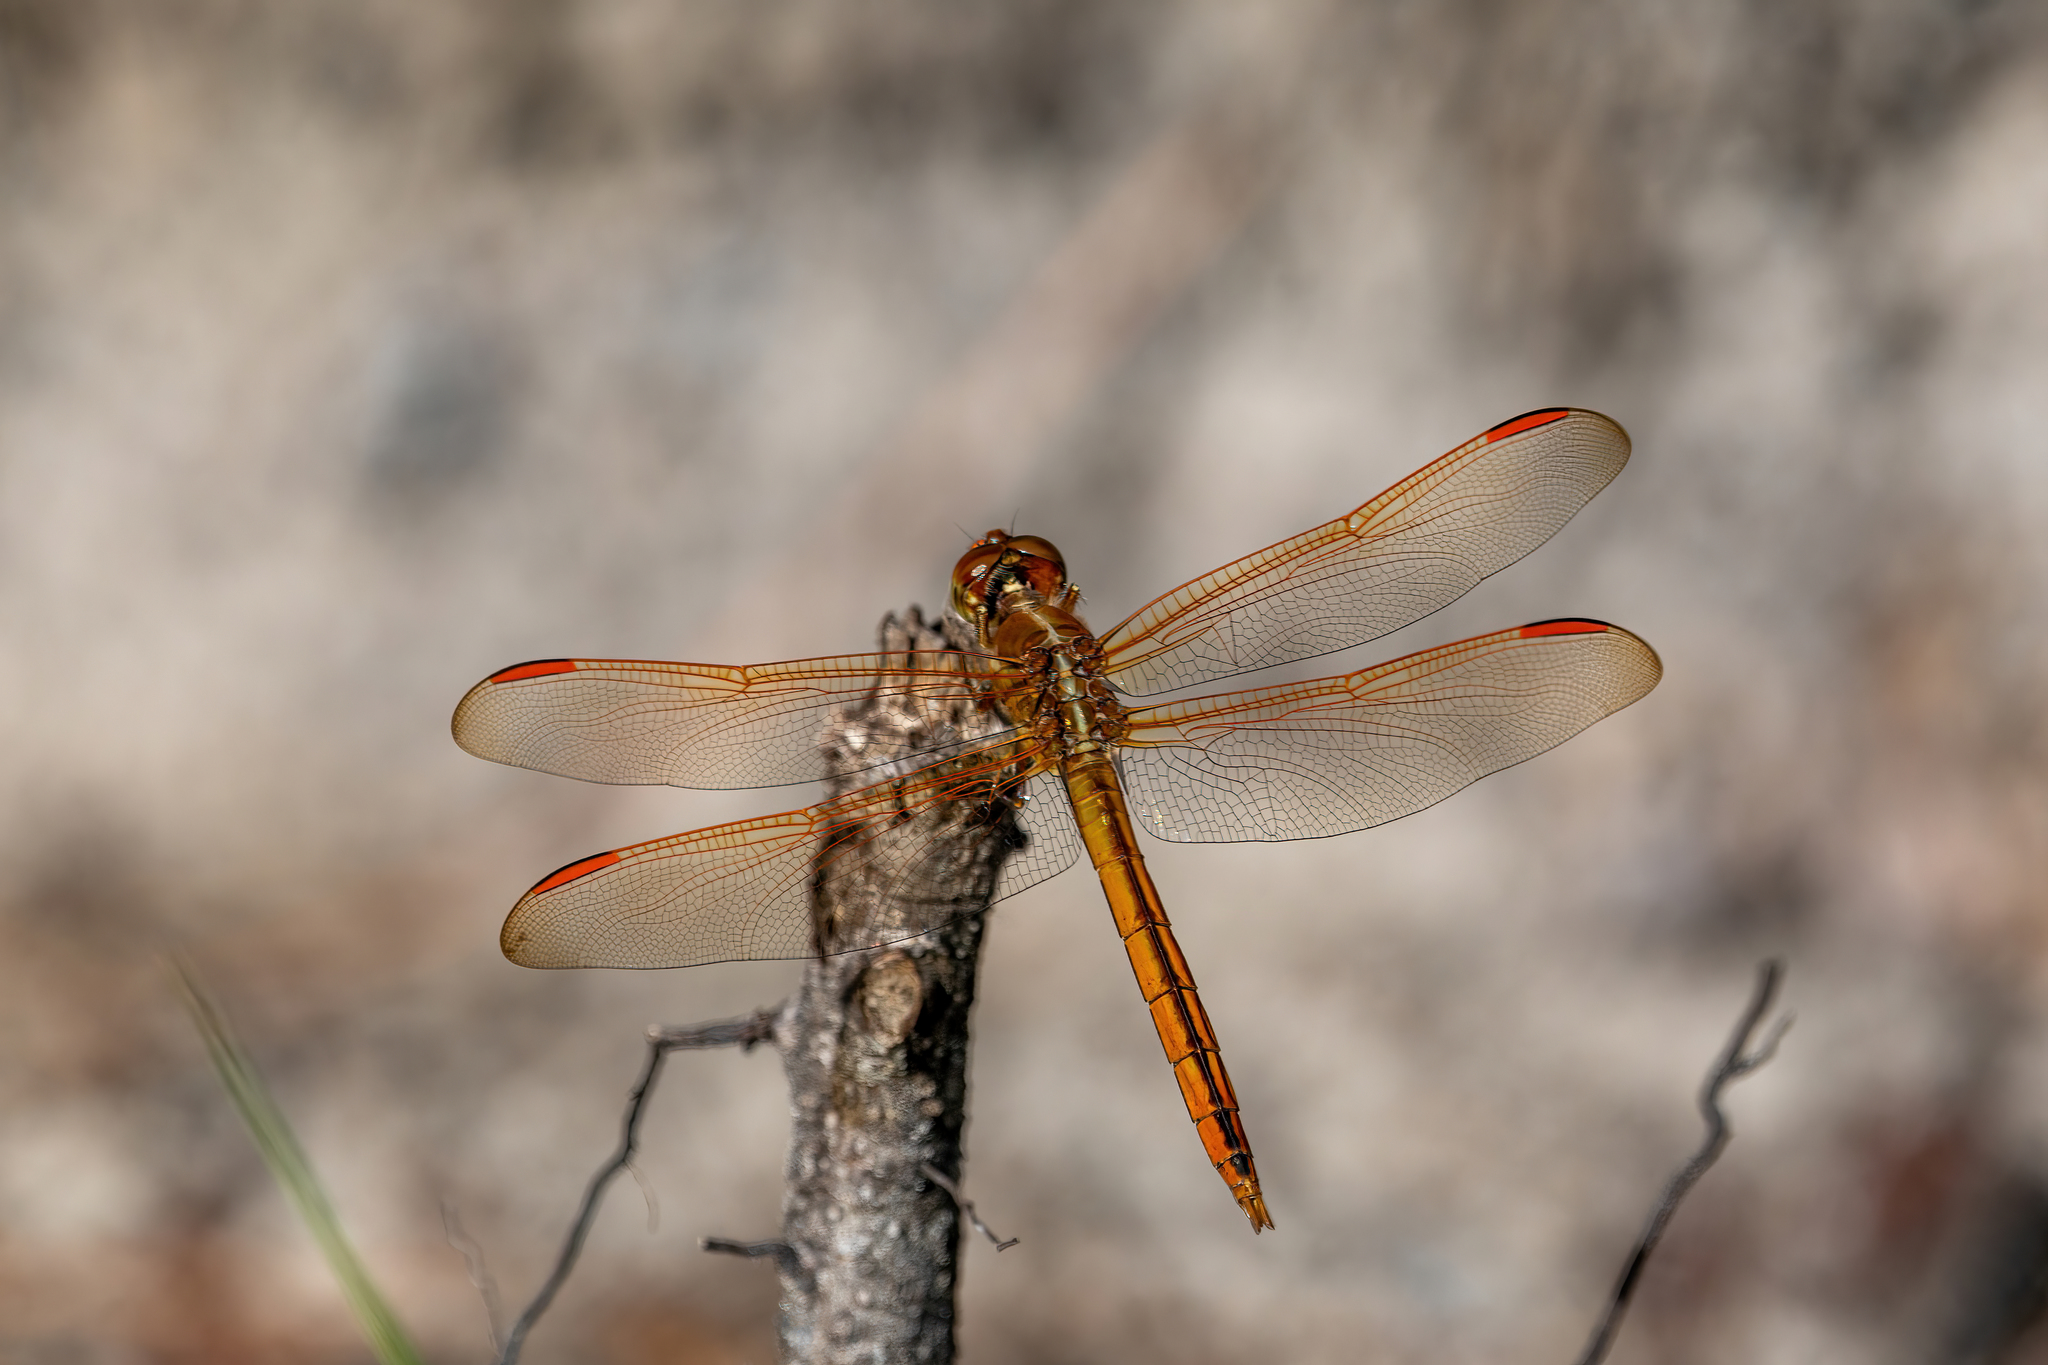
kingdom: Animalia
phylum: Arthropoda
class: Insecta
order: Odonata
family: Libellulidae
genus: Libellula
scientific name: Libellula auripennis
